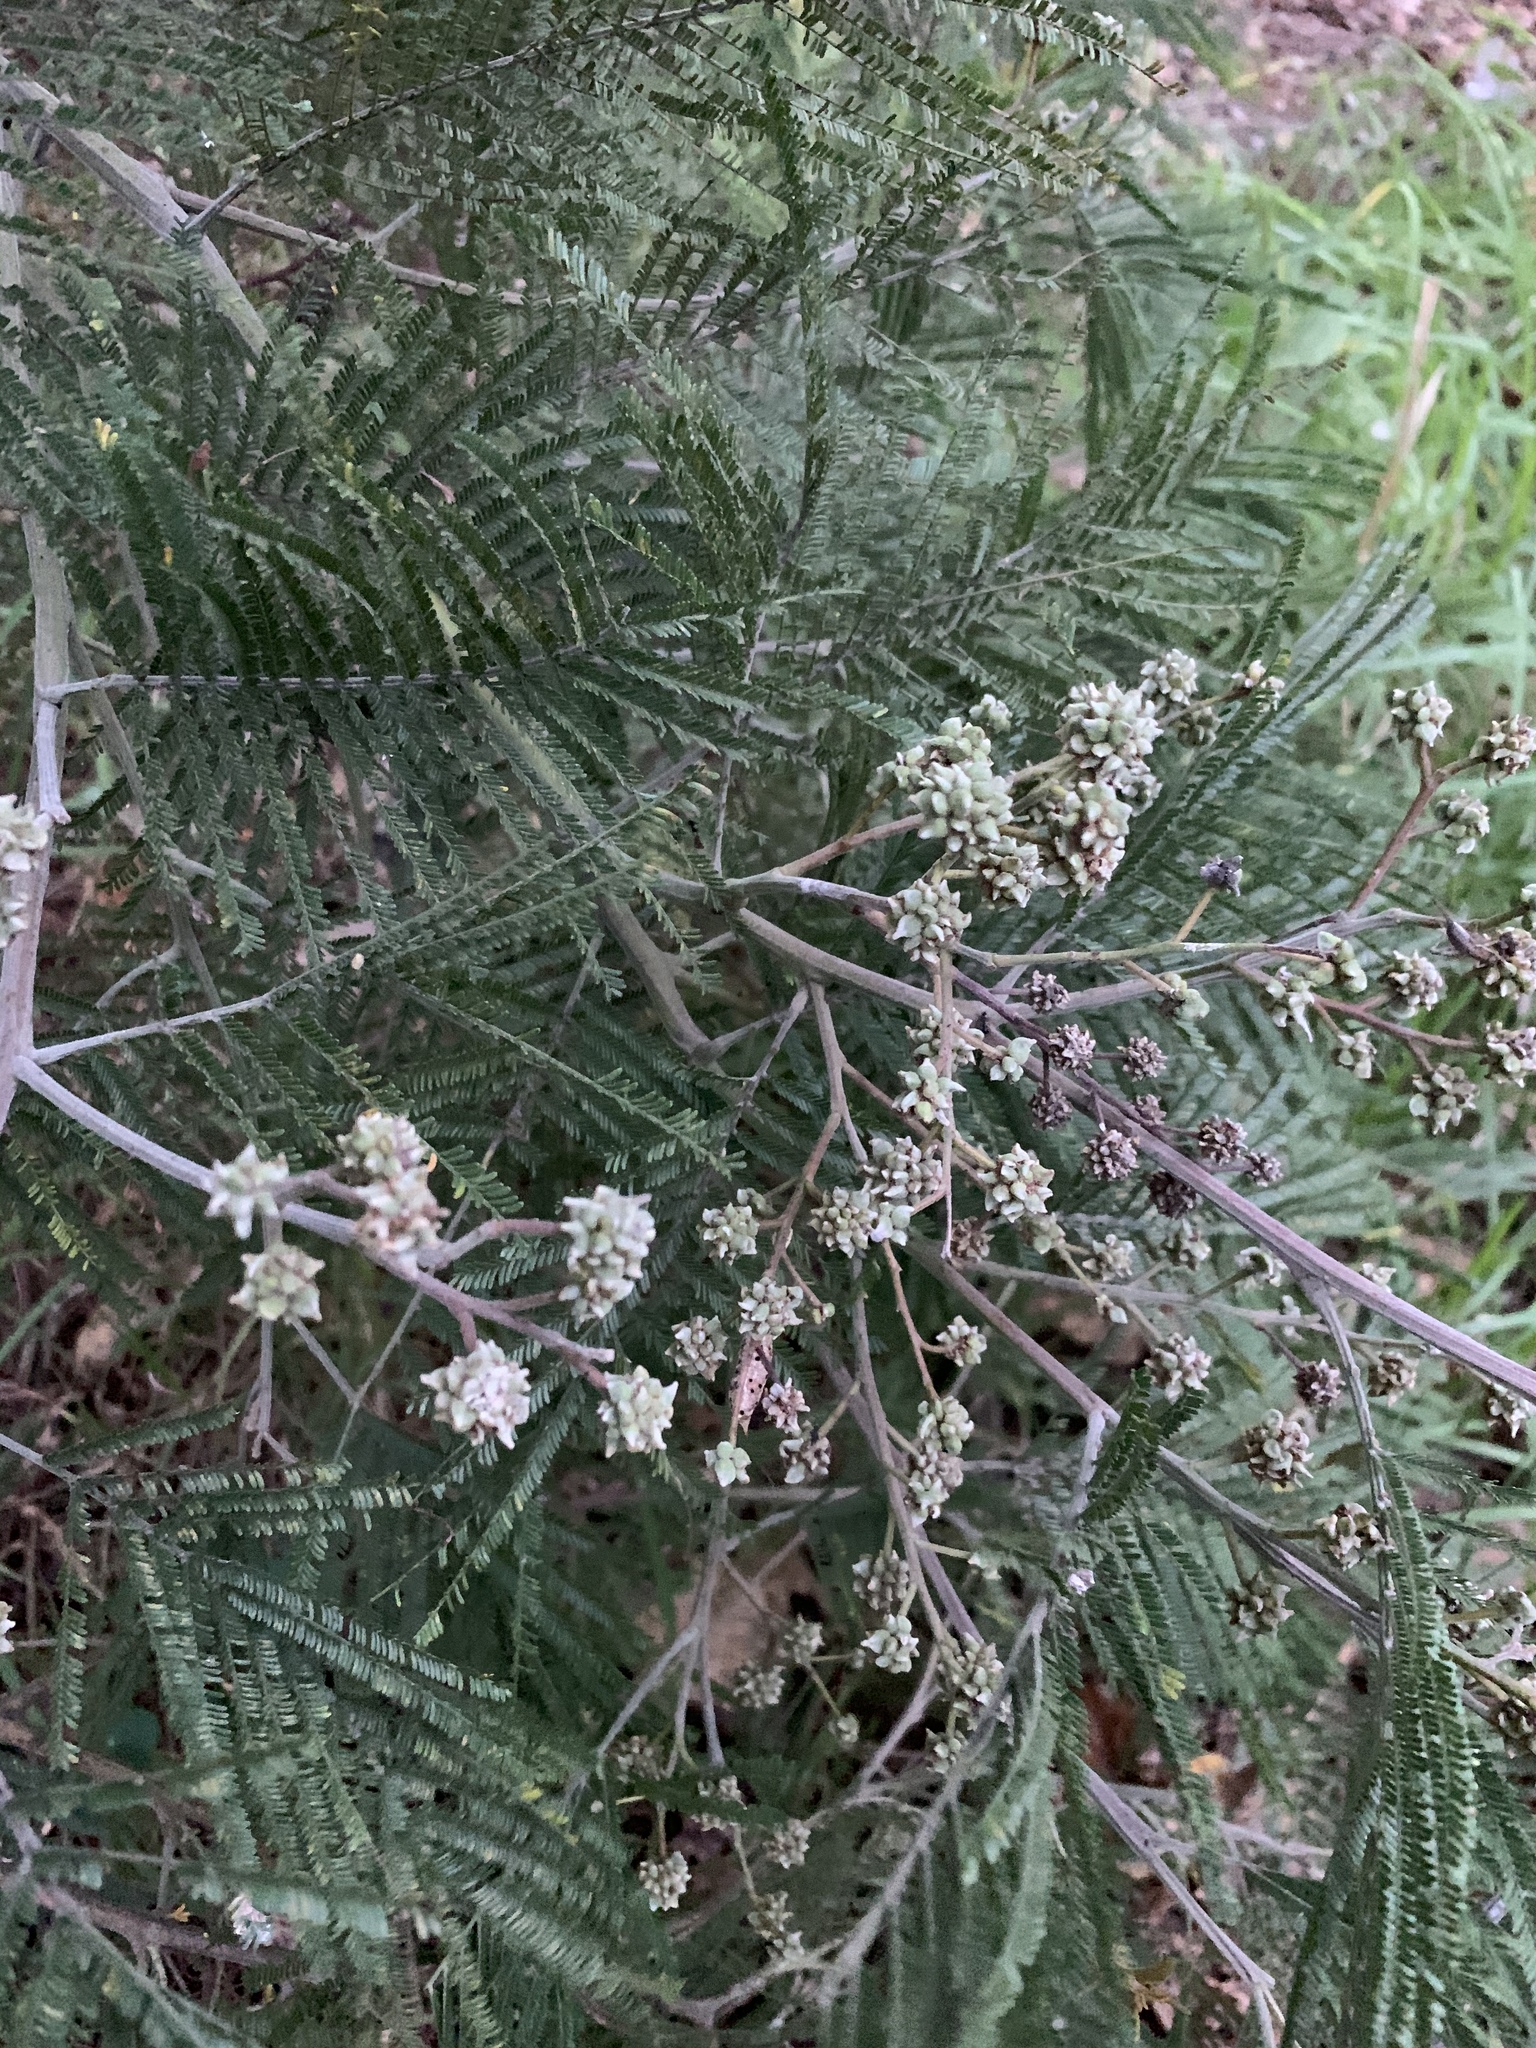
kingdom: Animalia
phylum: Arthropoda
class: Insecta
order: Diptera
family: Cecidomyiidae
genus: Dasineura
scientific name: Dasineura rubiformis
